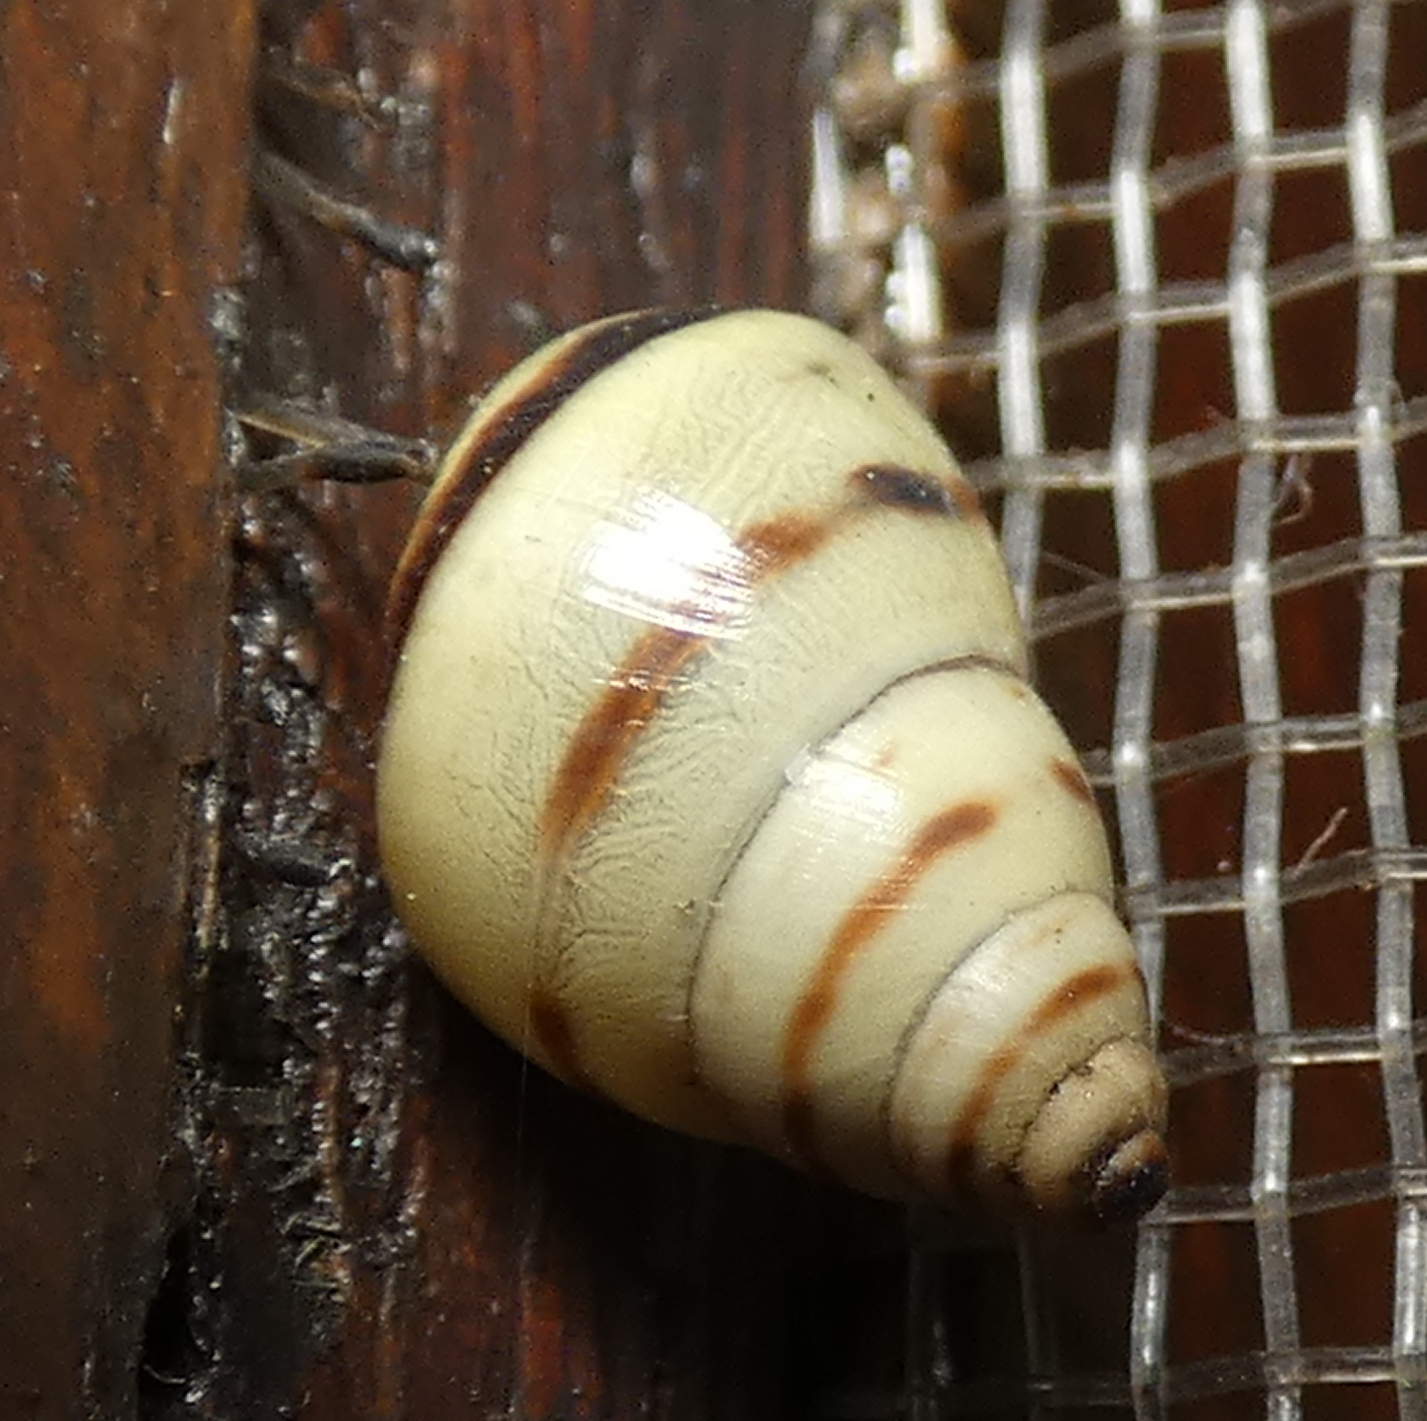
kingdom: Animalia
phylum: Mollusca
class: Gastropoda
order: Stylommatophora
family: Bulimulidae
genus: Drymaeus
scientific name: Drymaeus
